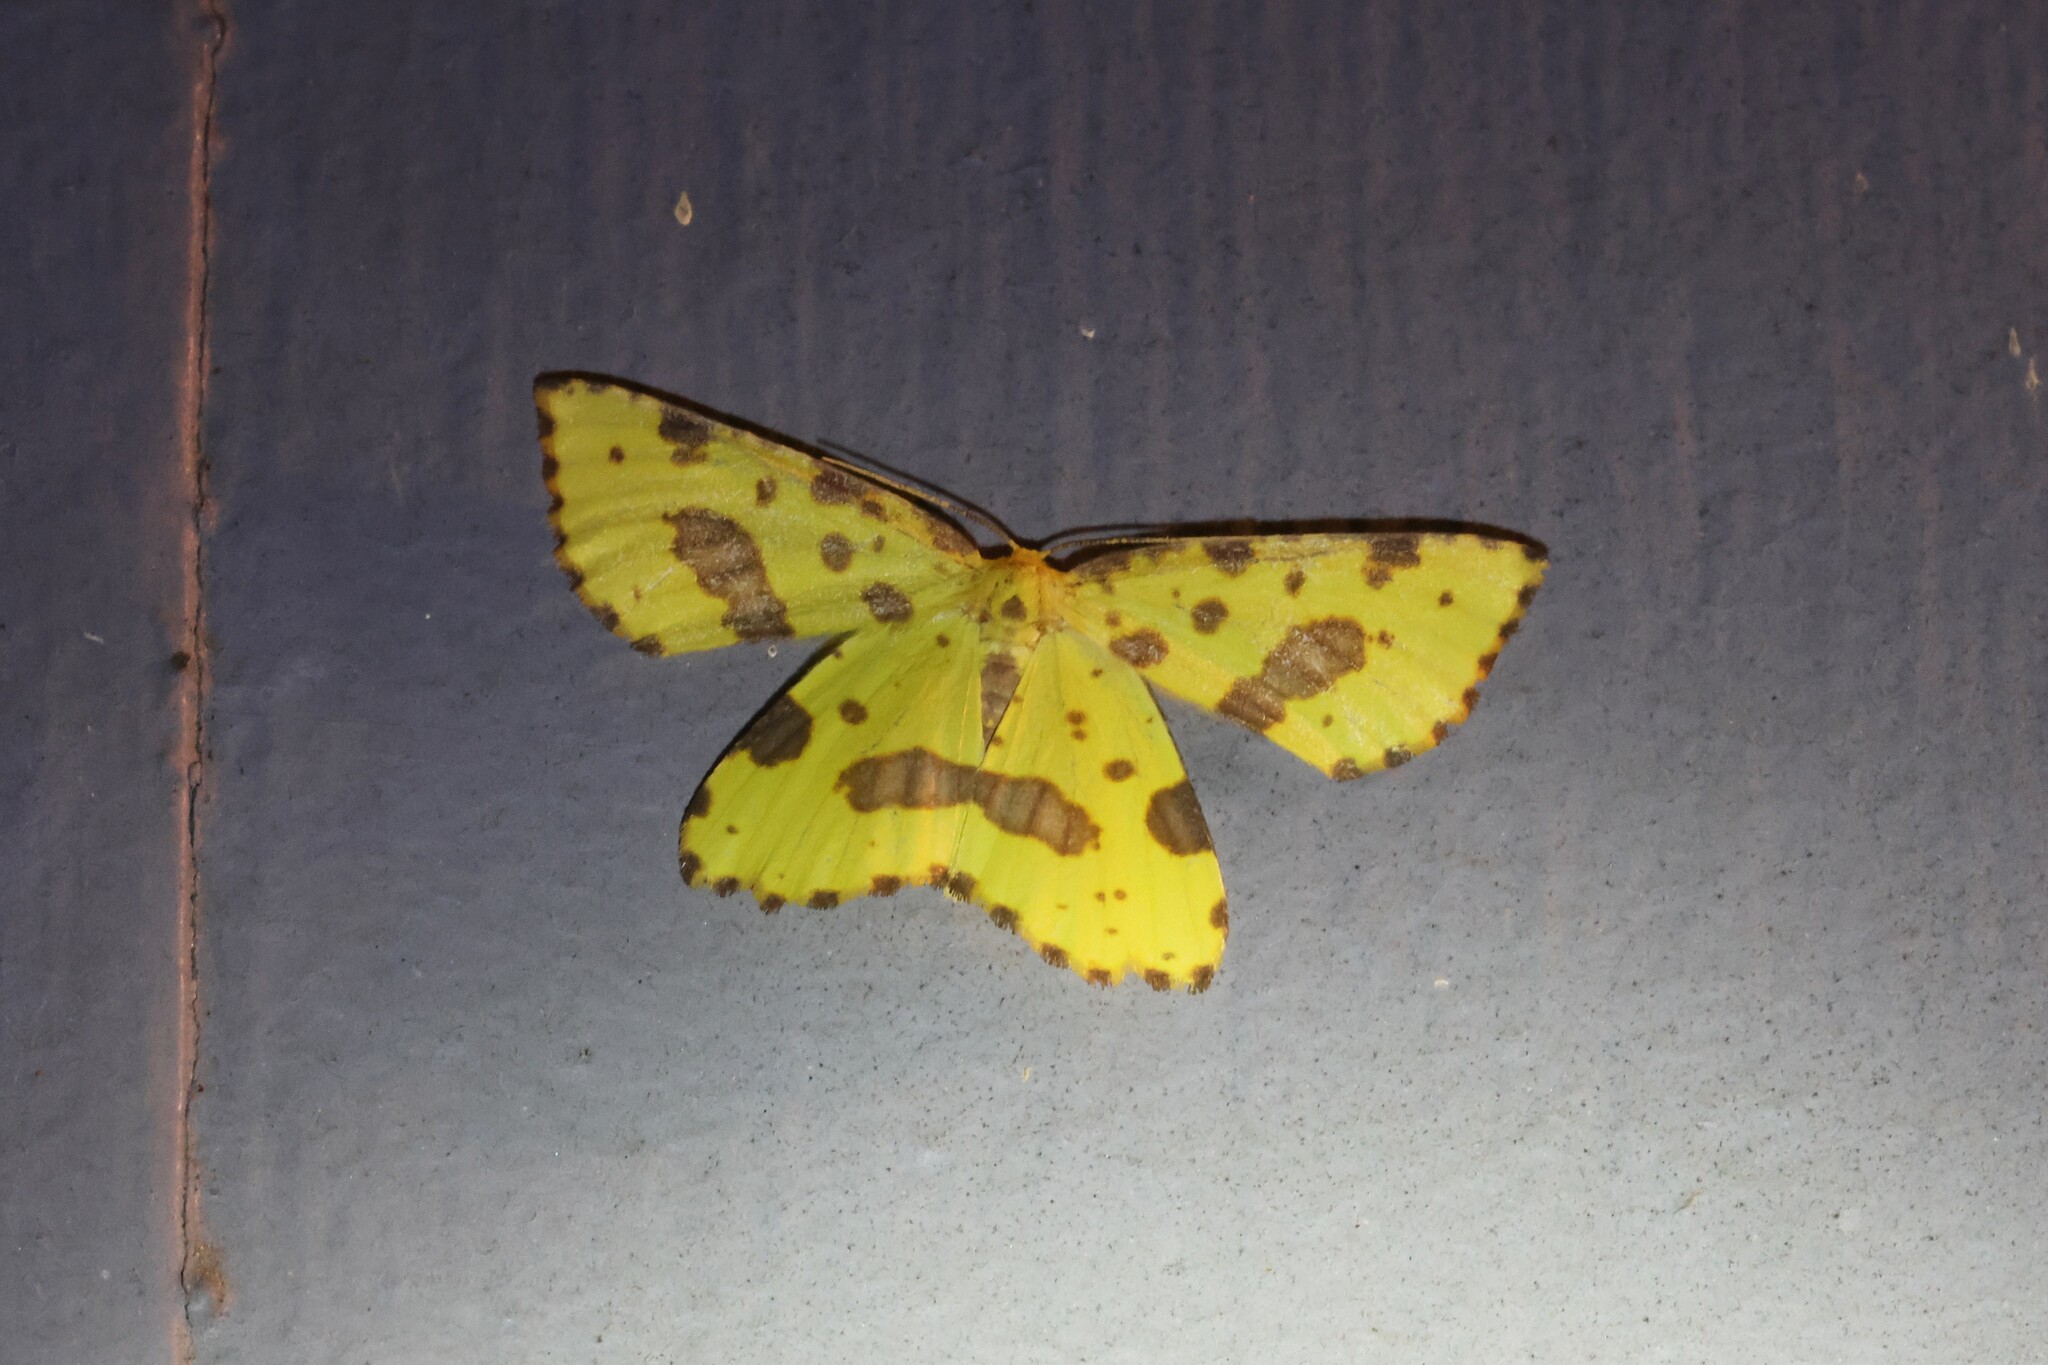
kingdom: Animalia
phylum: Arthropoda
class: Insecta
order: Lepidoptera
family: Geometridae
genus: Xanthotype
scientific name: Xanthotype
